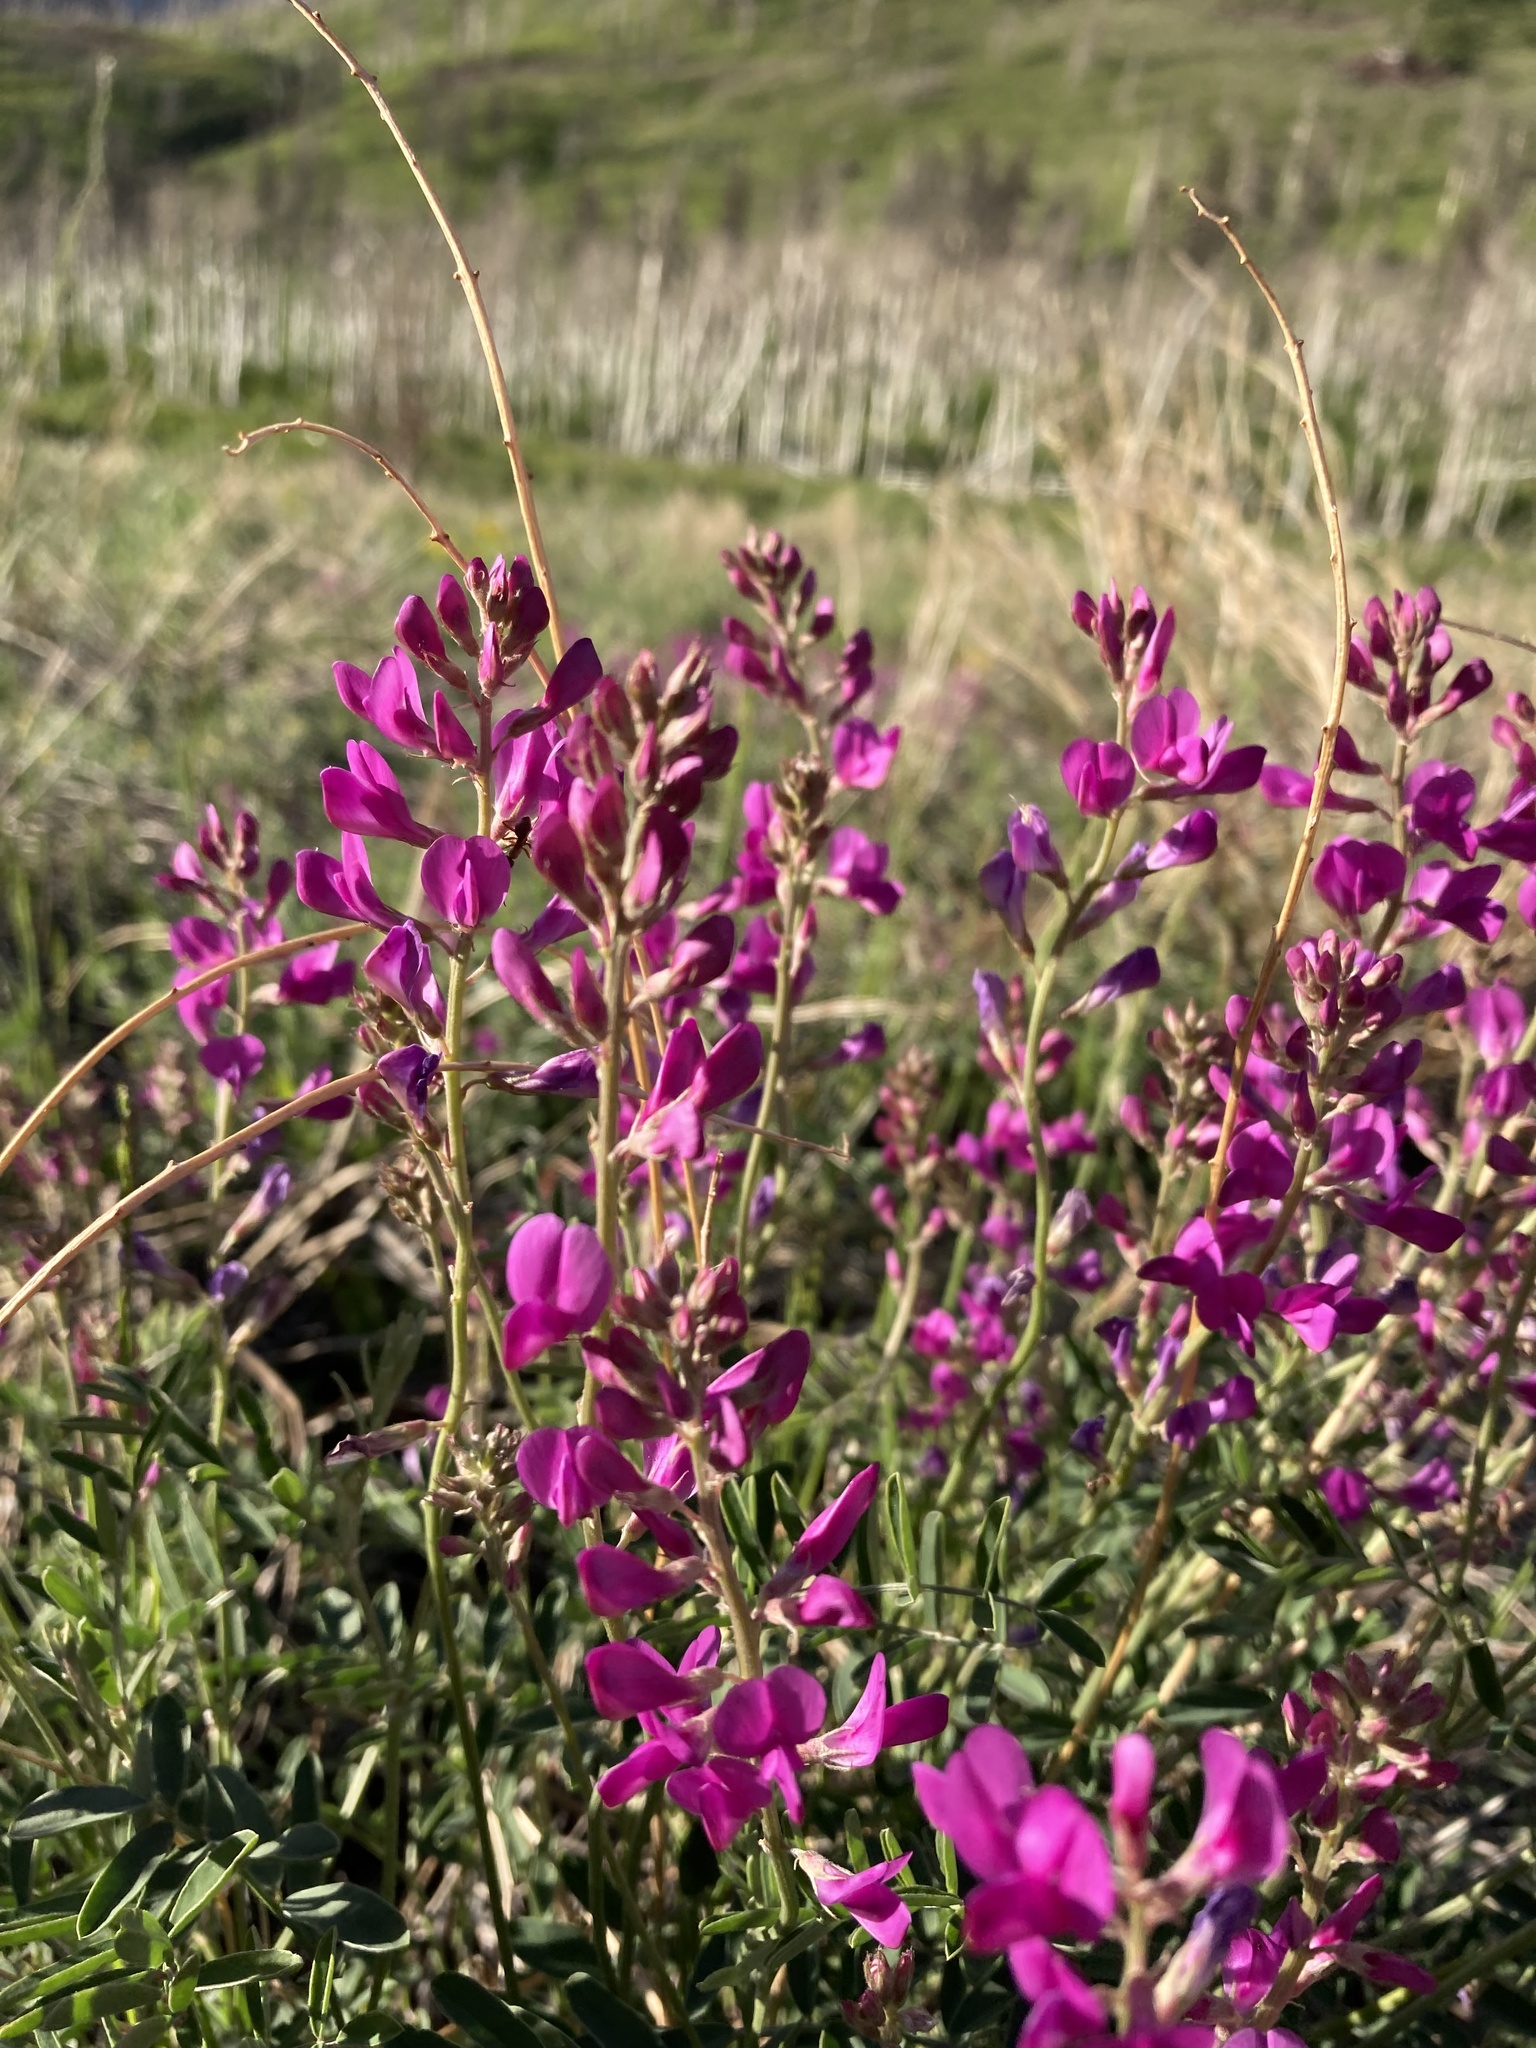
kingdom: Plantae
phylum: Tracheophyta
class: Magnoliopsida
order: Fabales
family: Fabaceae
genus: Hedysarum
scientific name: Hedysarum boreale
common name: Northern sweet-vetch
